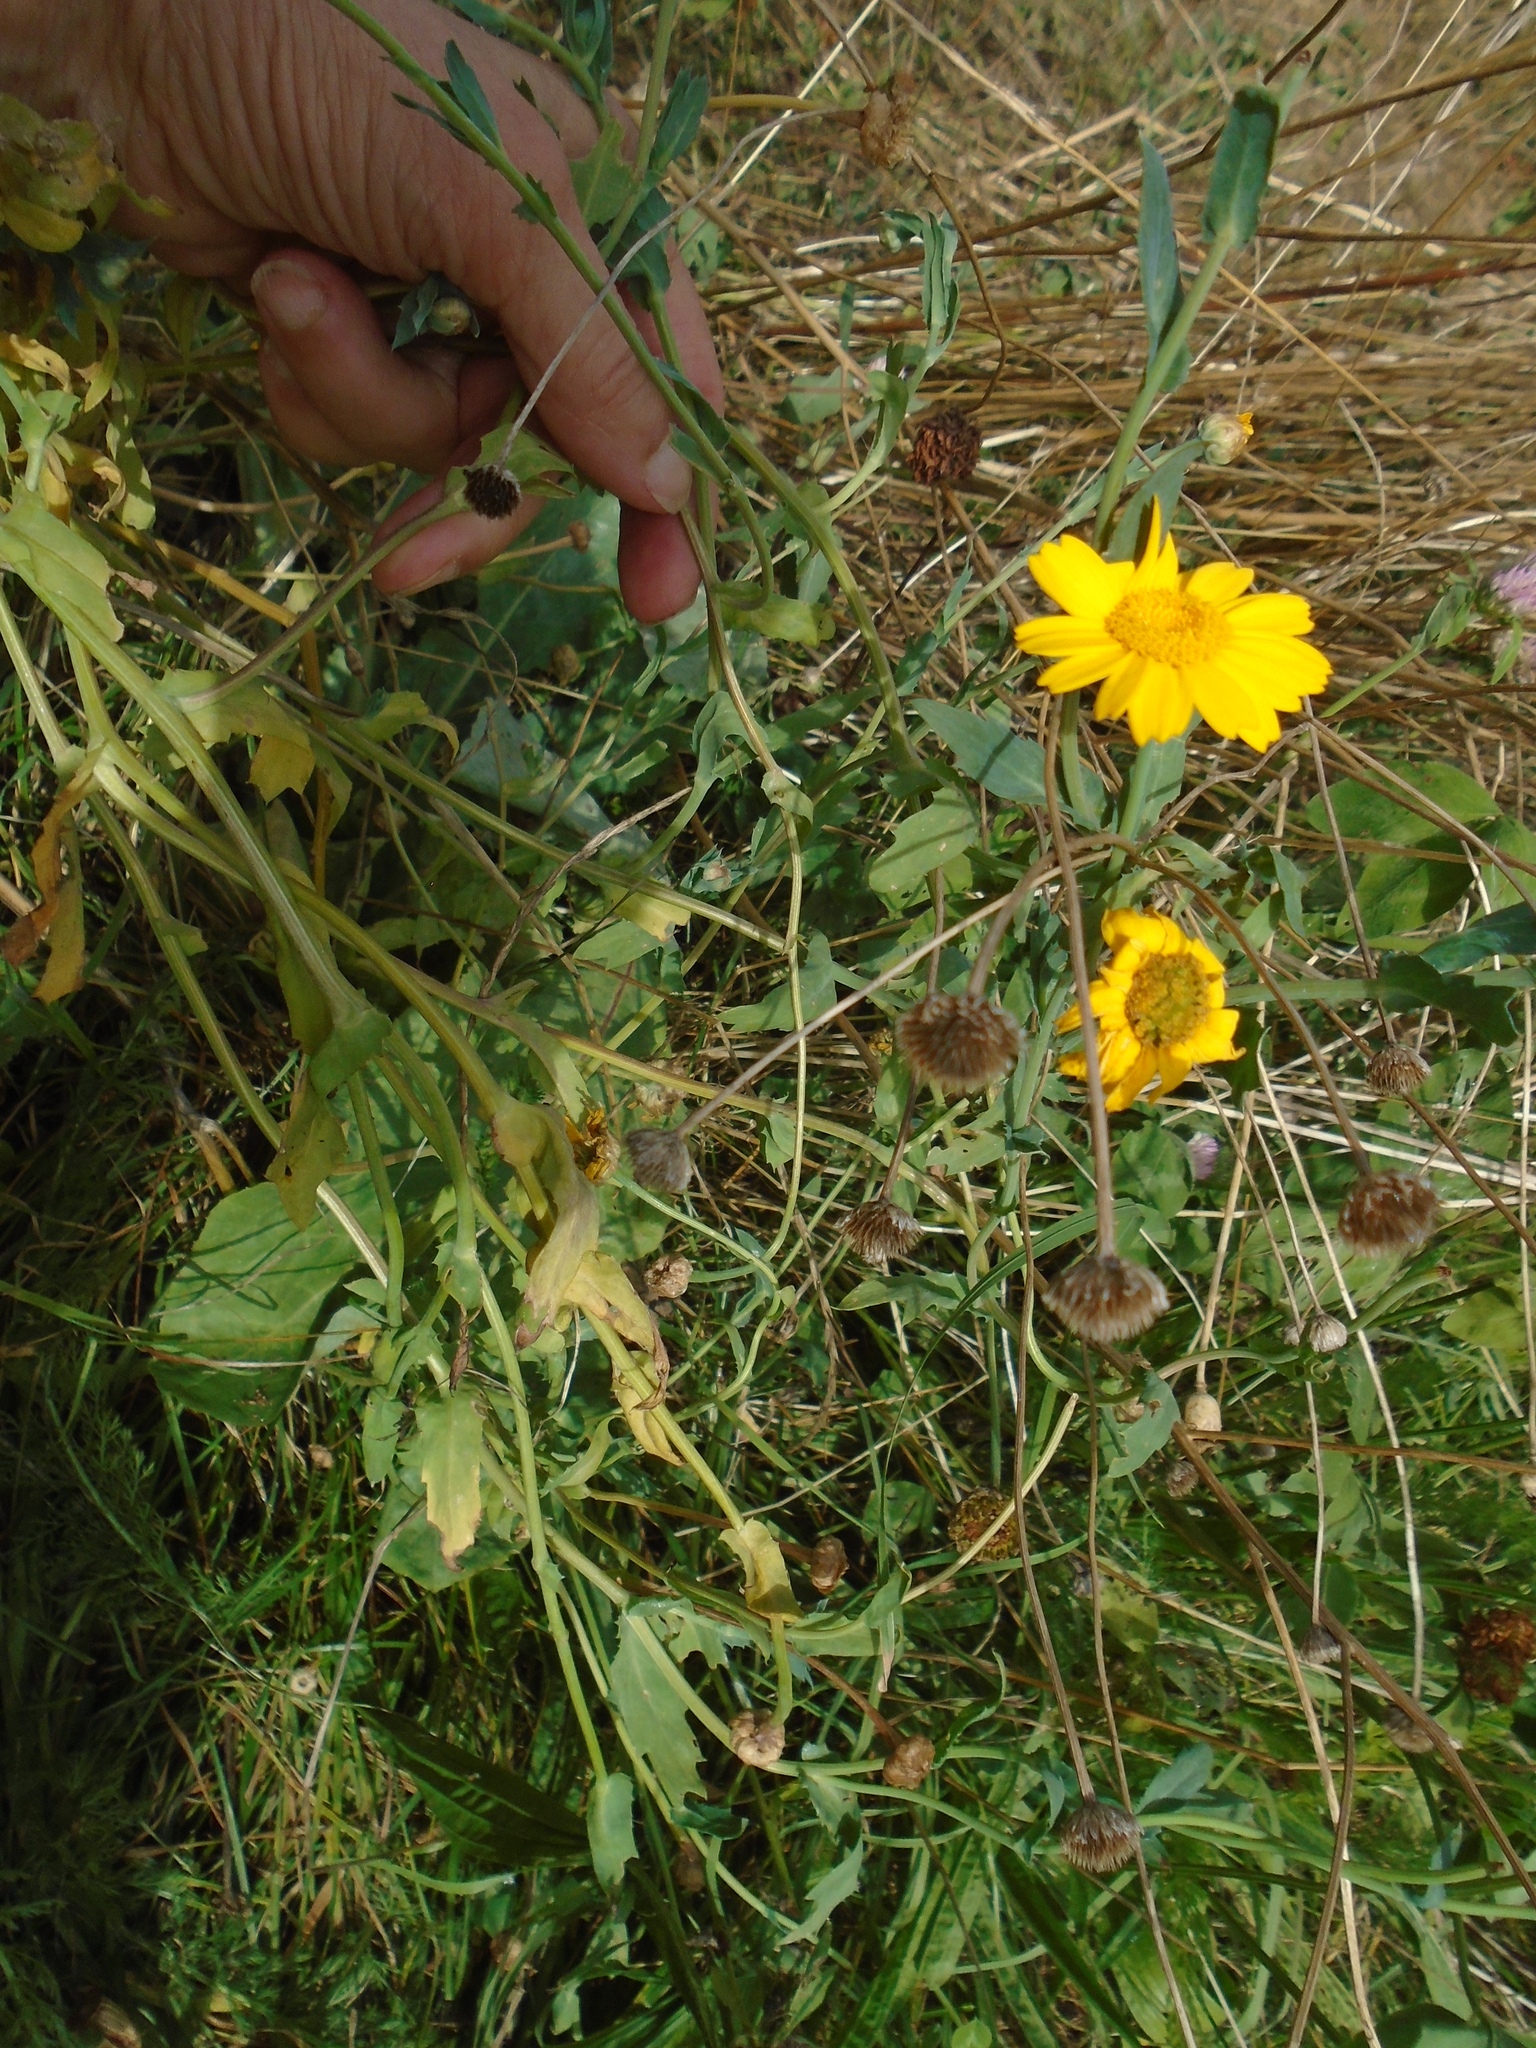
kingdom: Plantae
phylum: Tracheophyta
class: Magnoliopsida
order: Asterales
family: Asteraceae
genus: Glebionis
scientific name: Glebionis segetum
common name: Corndaisy
